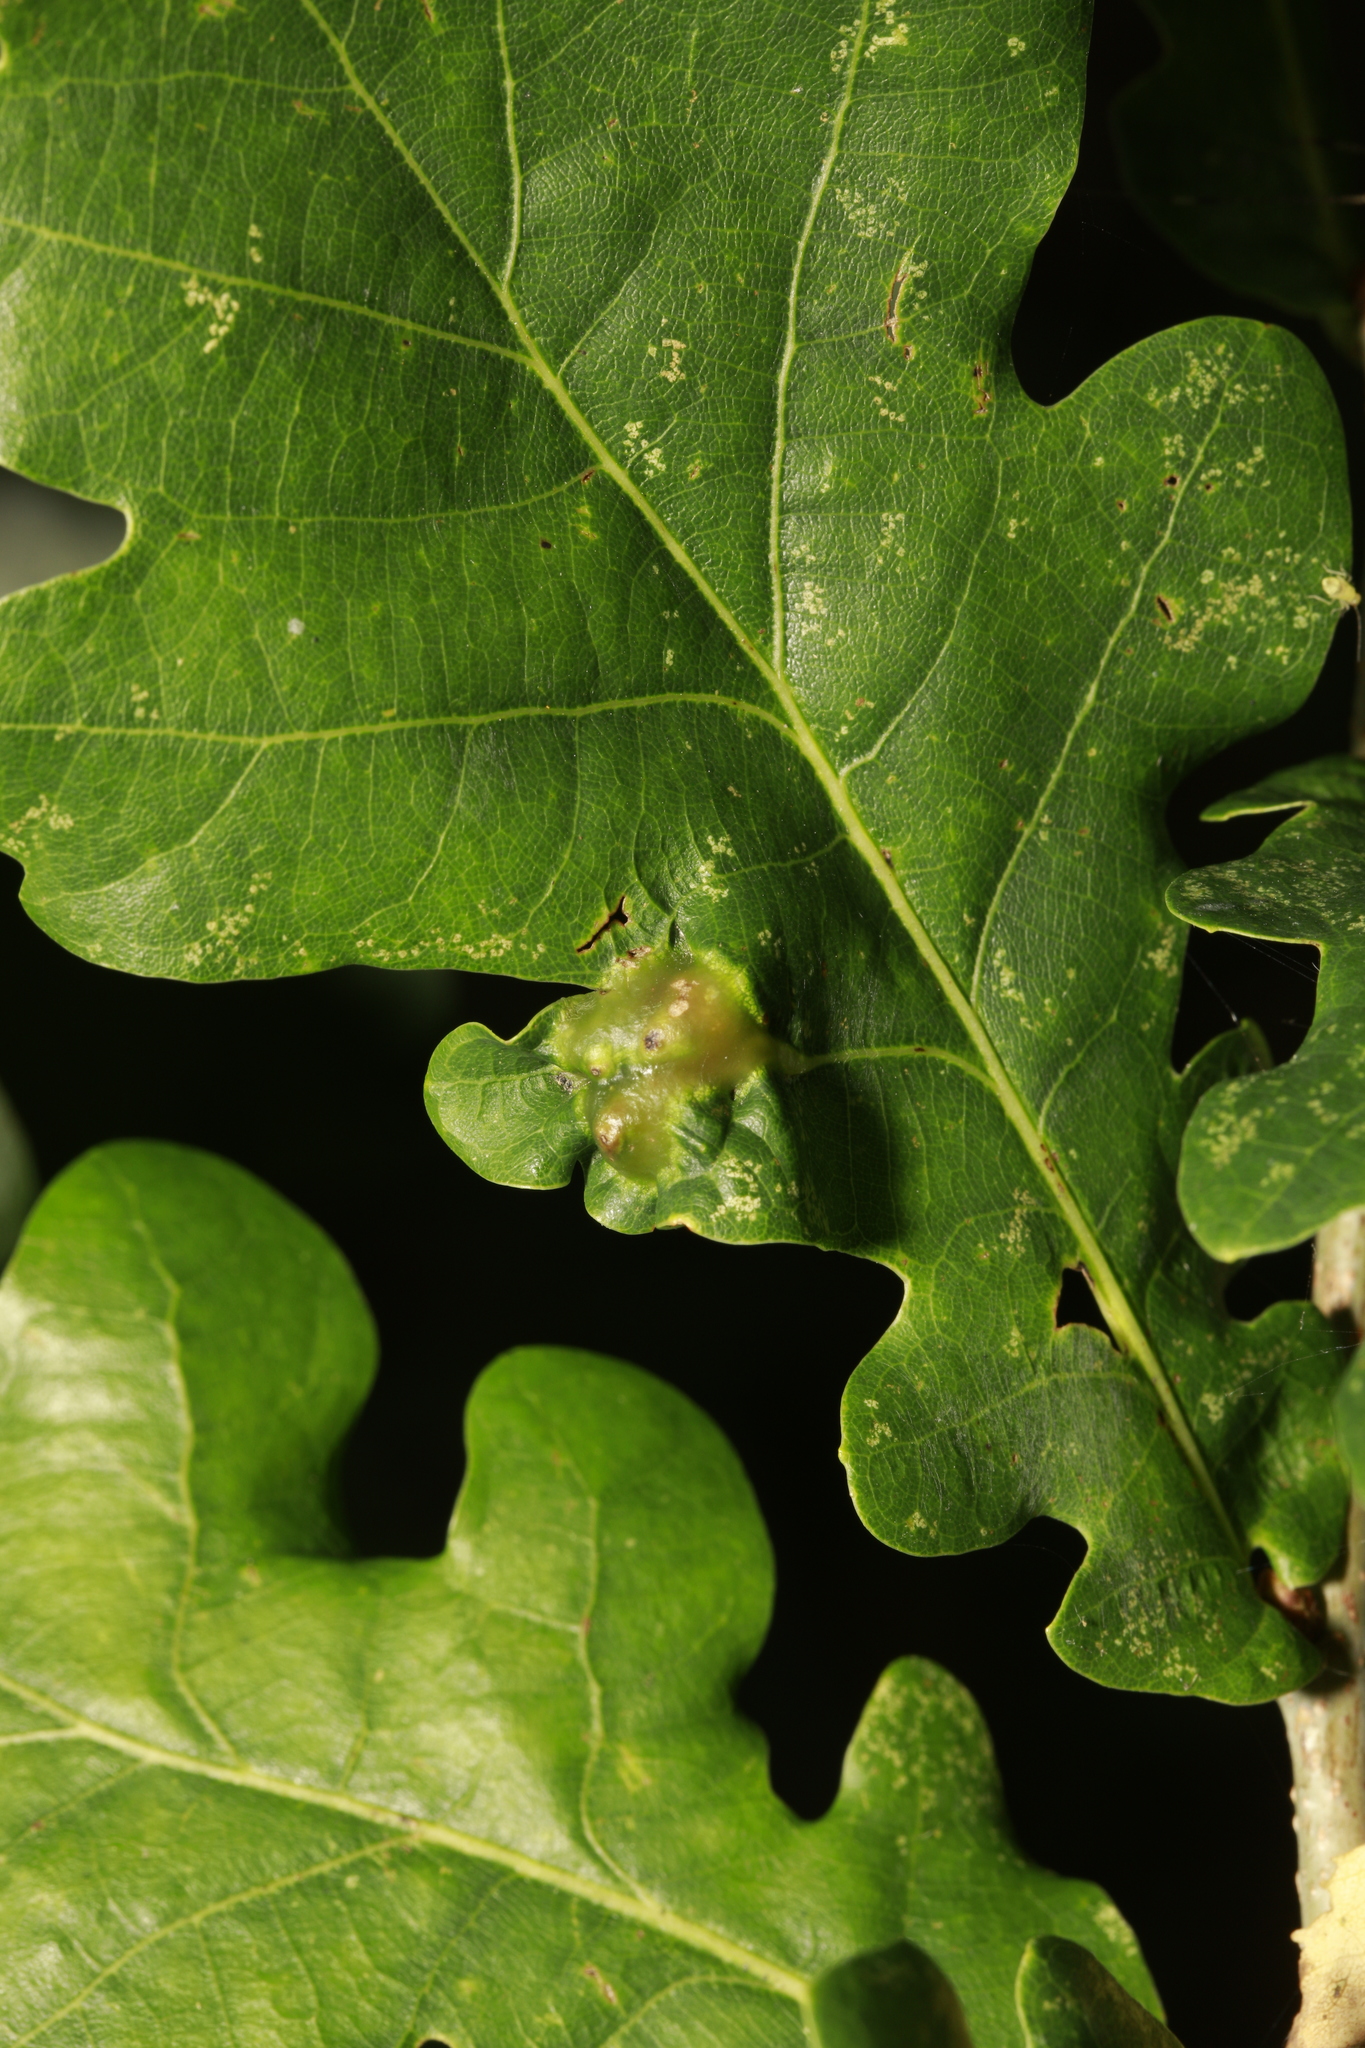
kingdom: Animalia
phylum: Arthropoda
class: Insecta
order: Hymenoptera
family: Cynipidae
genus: Andricus
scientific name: Andricus curvator
